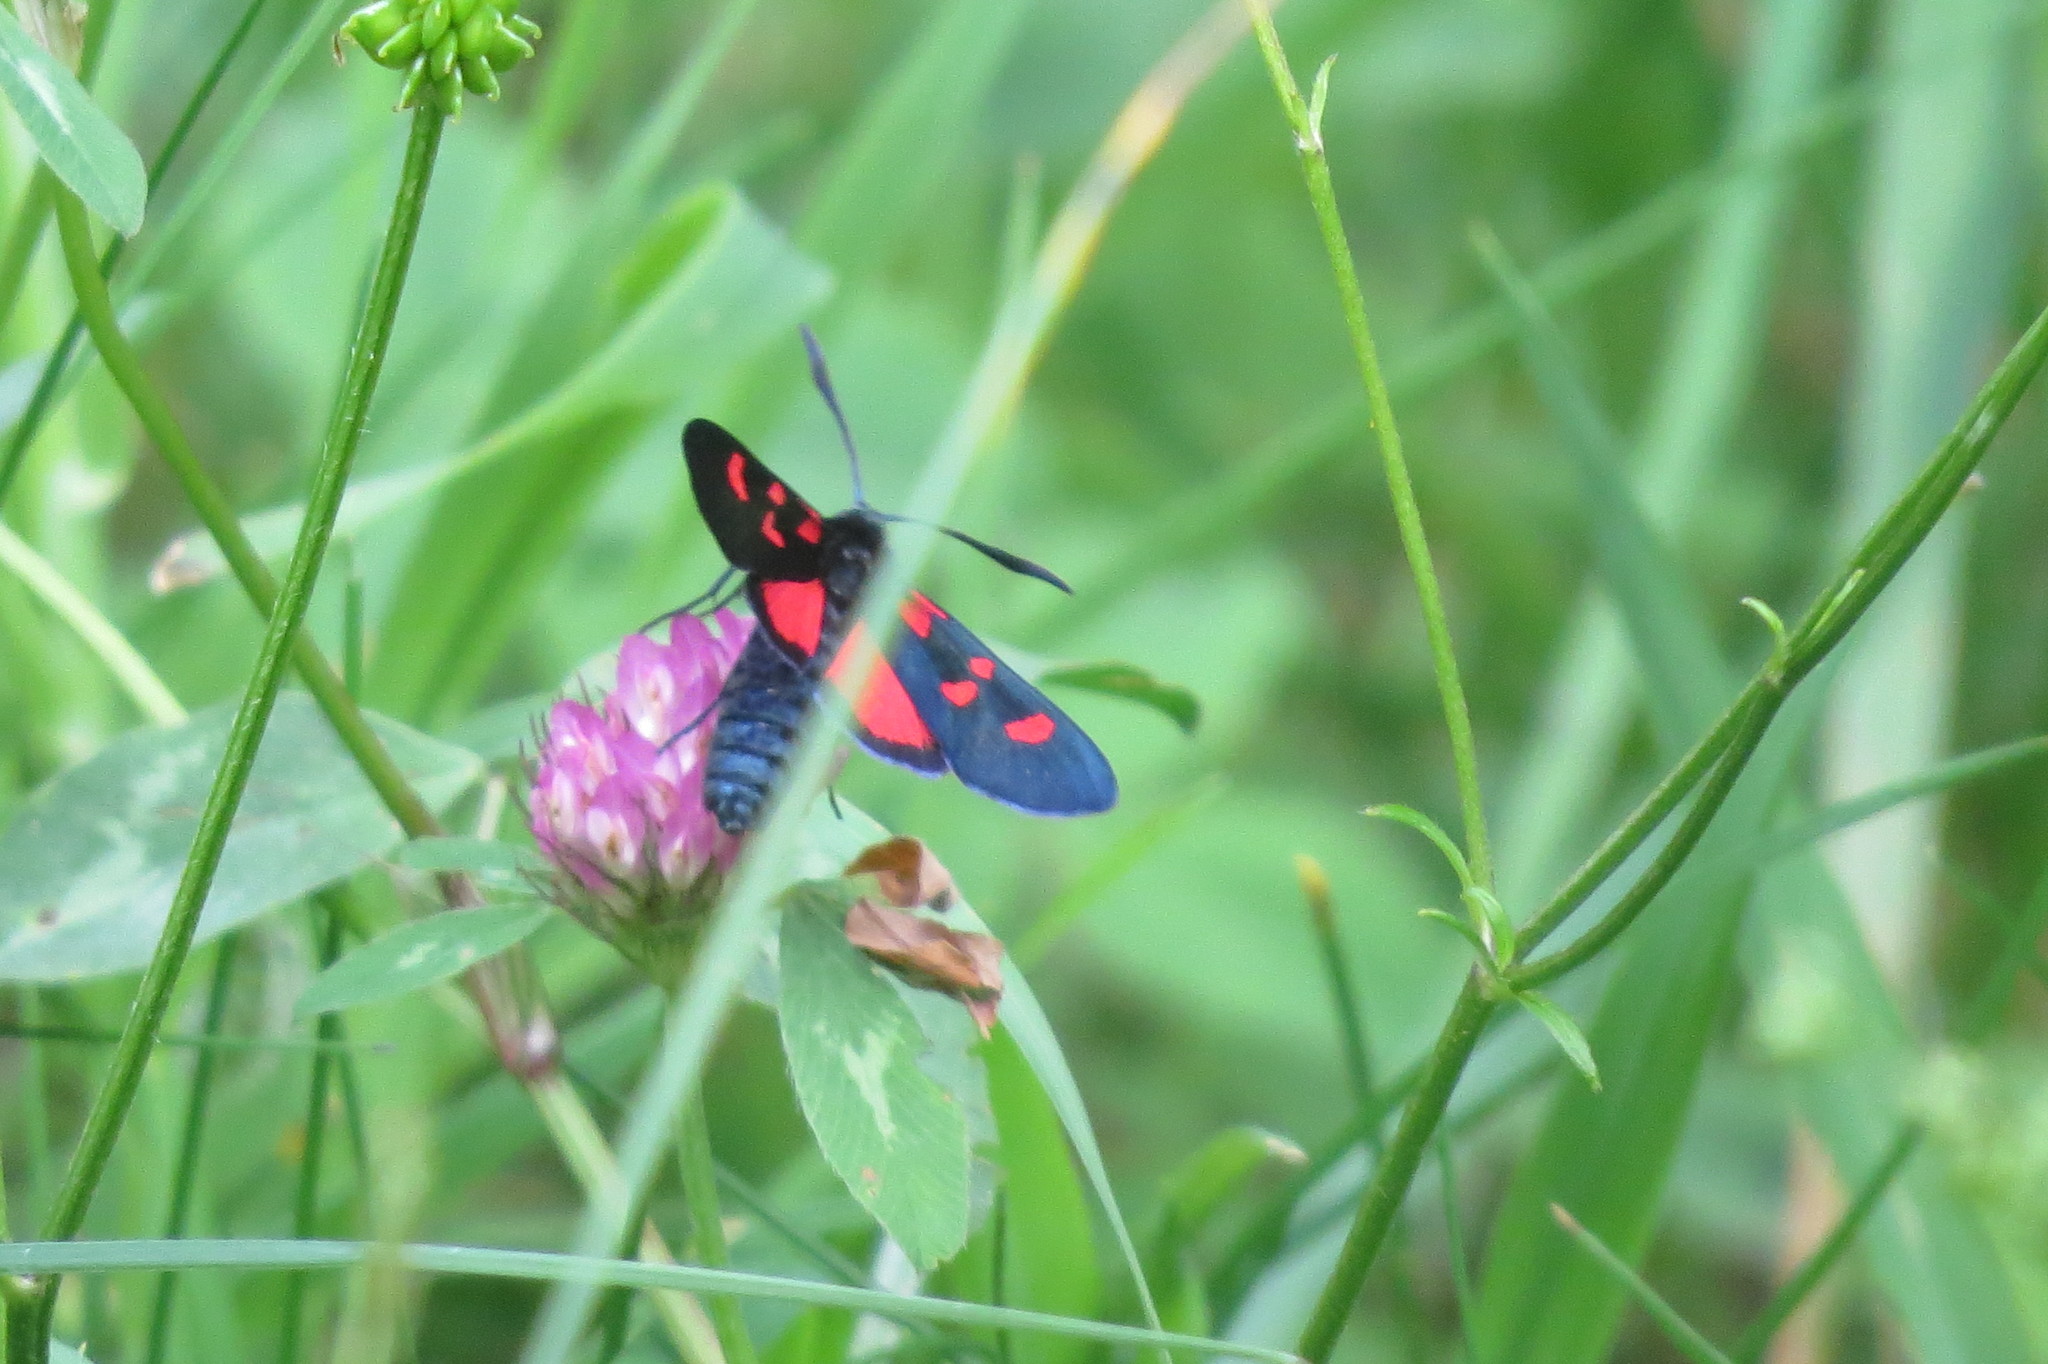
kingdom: Animalia
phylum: Arthropoda
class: Insecta
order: Lepidoptera
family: Zygaenidae
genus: Zygaena
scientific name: Zygaena lonicerae
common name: Narrow-bordered five-spot burnet
